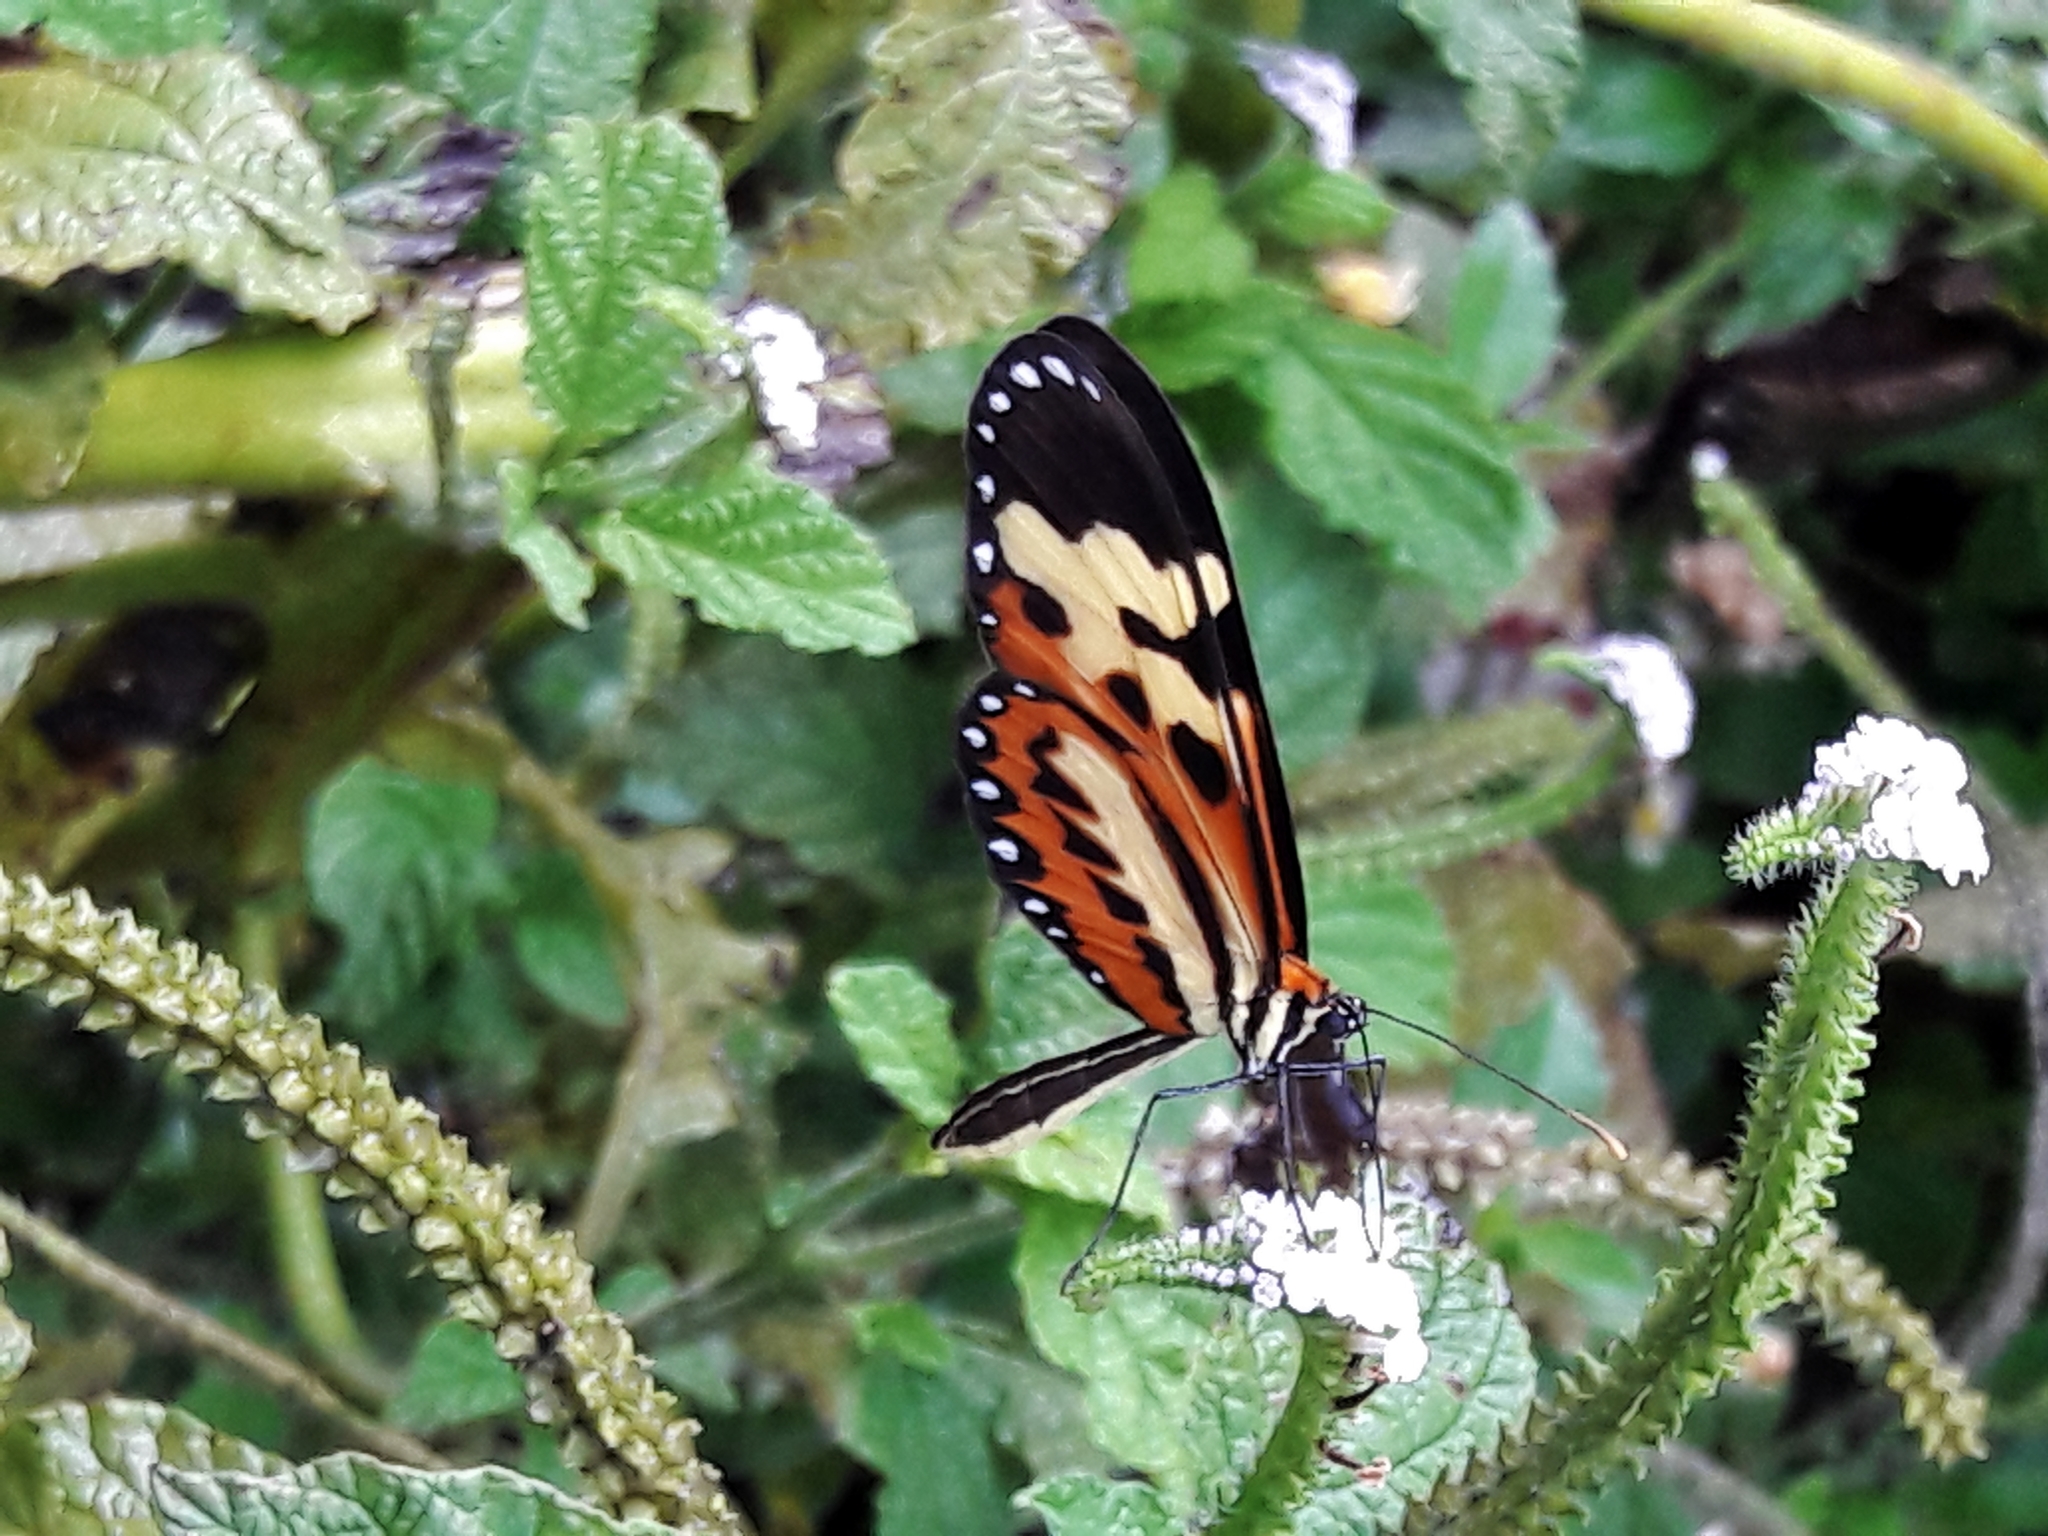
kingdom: Animalia
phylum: Arthropoda
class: Insecta
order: Lepidoptera
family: Nymphalidae
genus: Mechanitis
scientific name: Mechanitis polymnia
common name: Disturbed tigerwing
